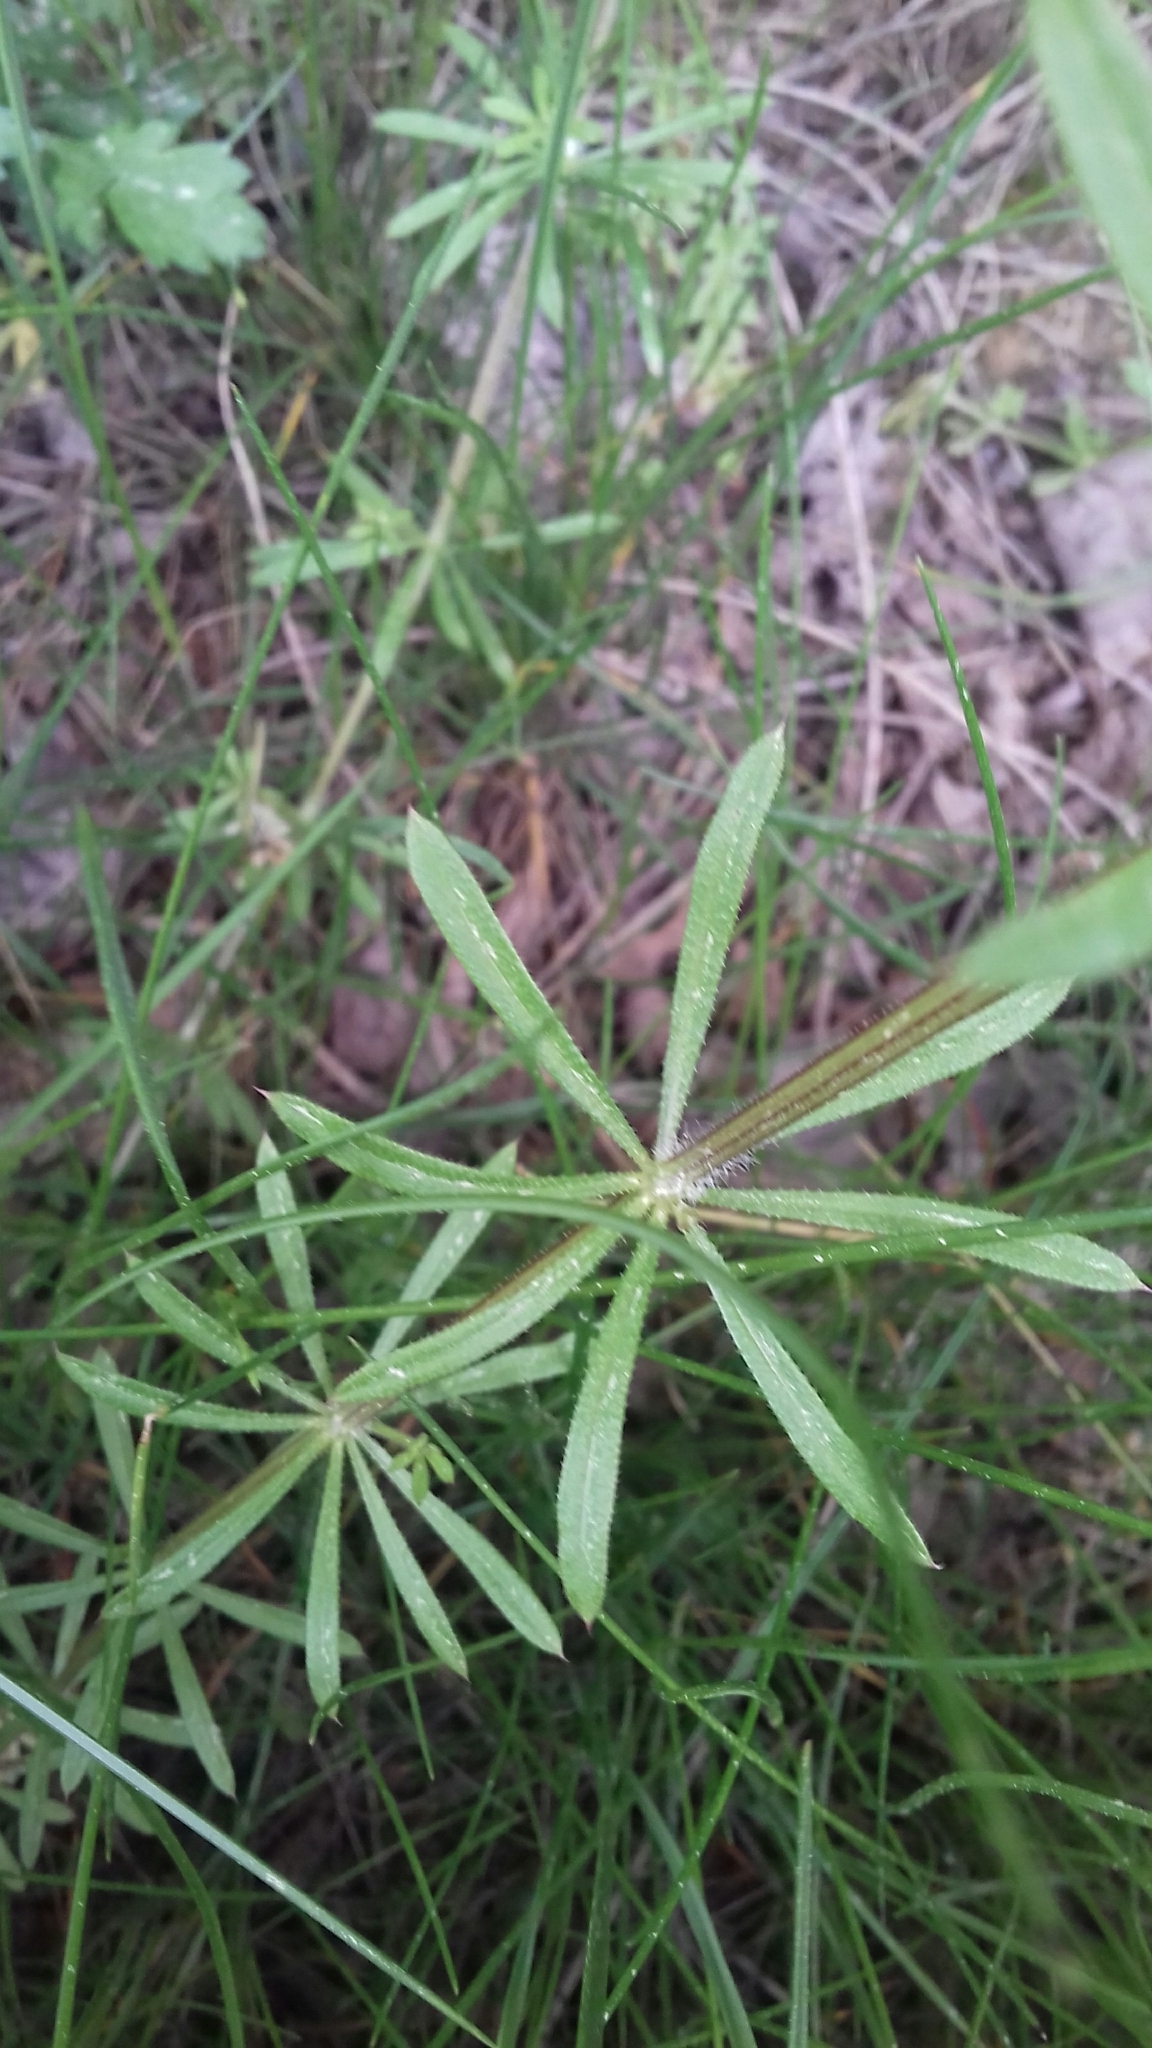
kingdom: Plantae
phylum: Tracheophyta
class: Magnoliopsida
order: Gentianales
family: Rubiaceae
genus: Galium
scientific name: Galium aparine
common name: Cleavers
